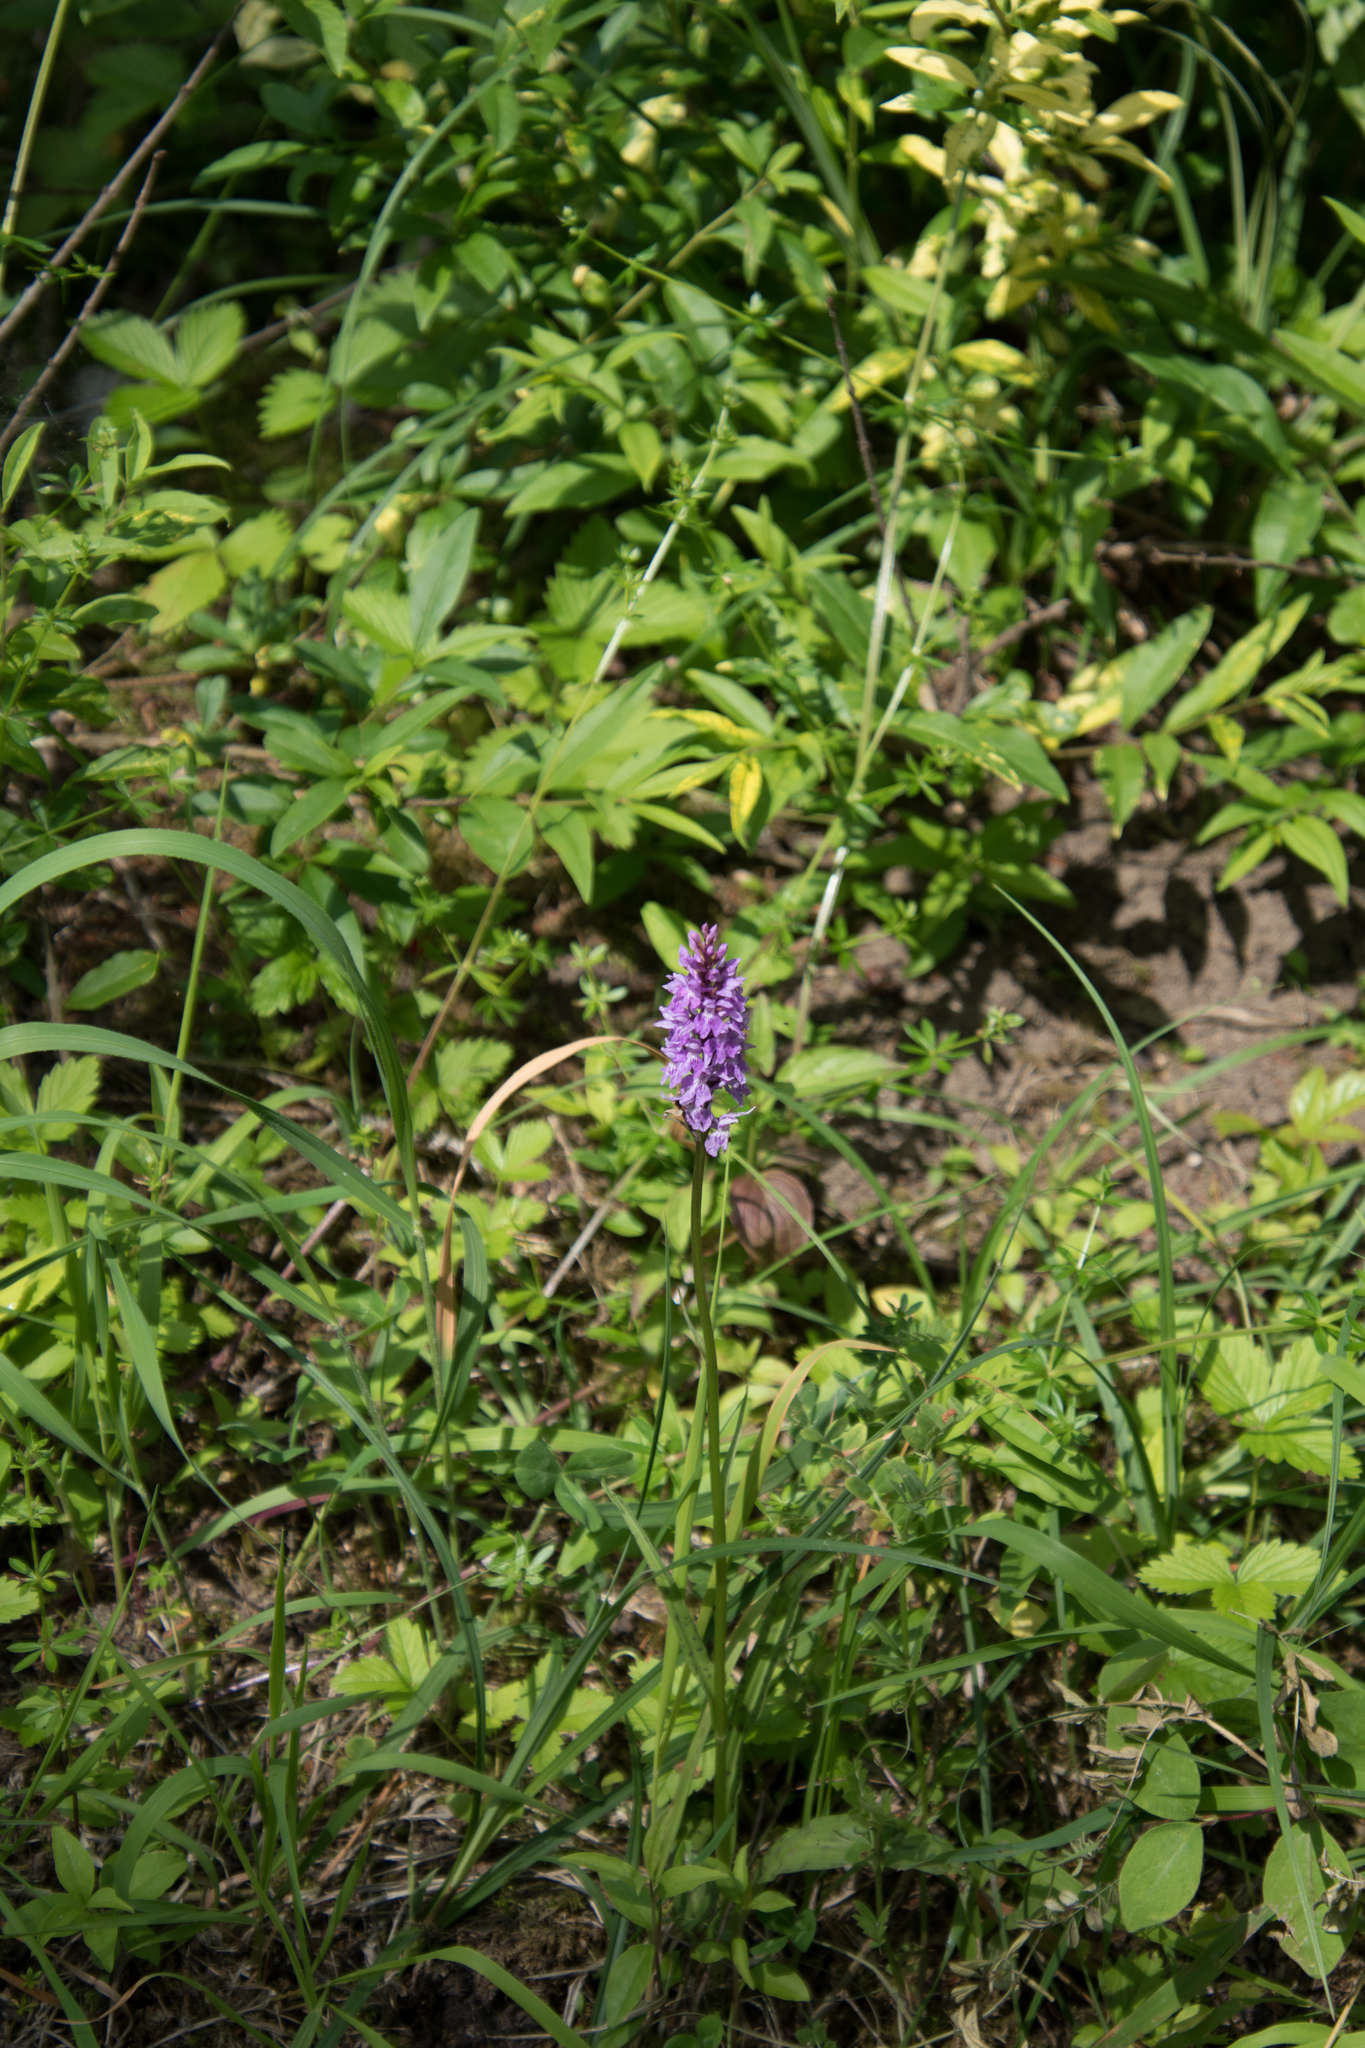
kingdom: Plantae
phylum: Tracheophyta
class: Liliopsida
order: Asparagales
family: Orchidaceae
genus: Dactylorhiza
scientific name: Dactylorhiza maculata
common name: Heath spotted-orchid
